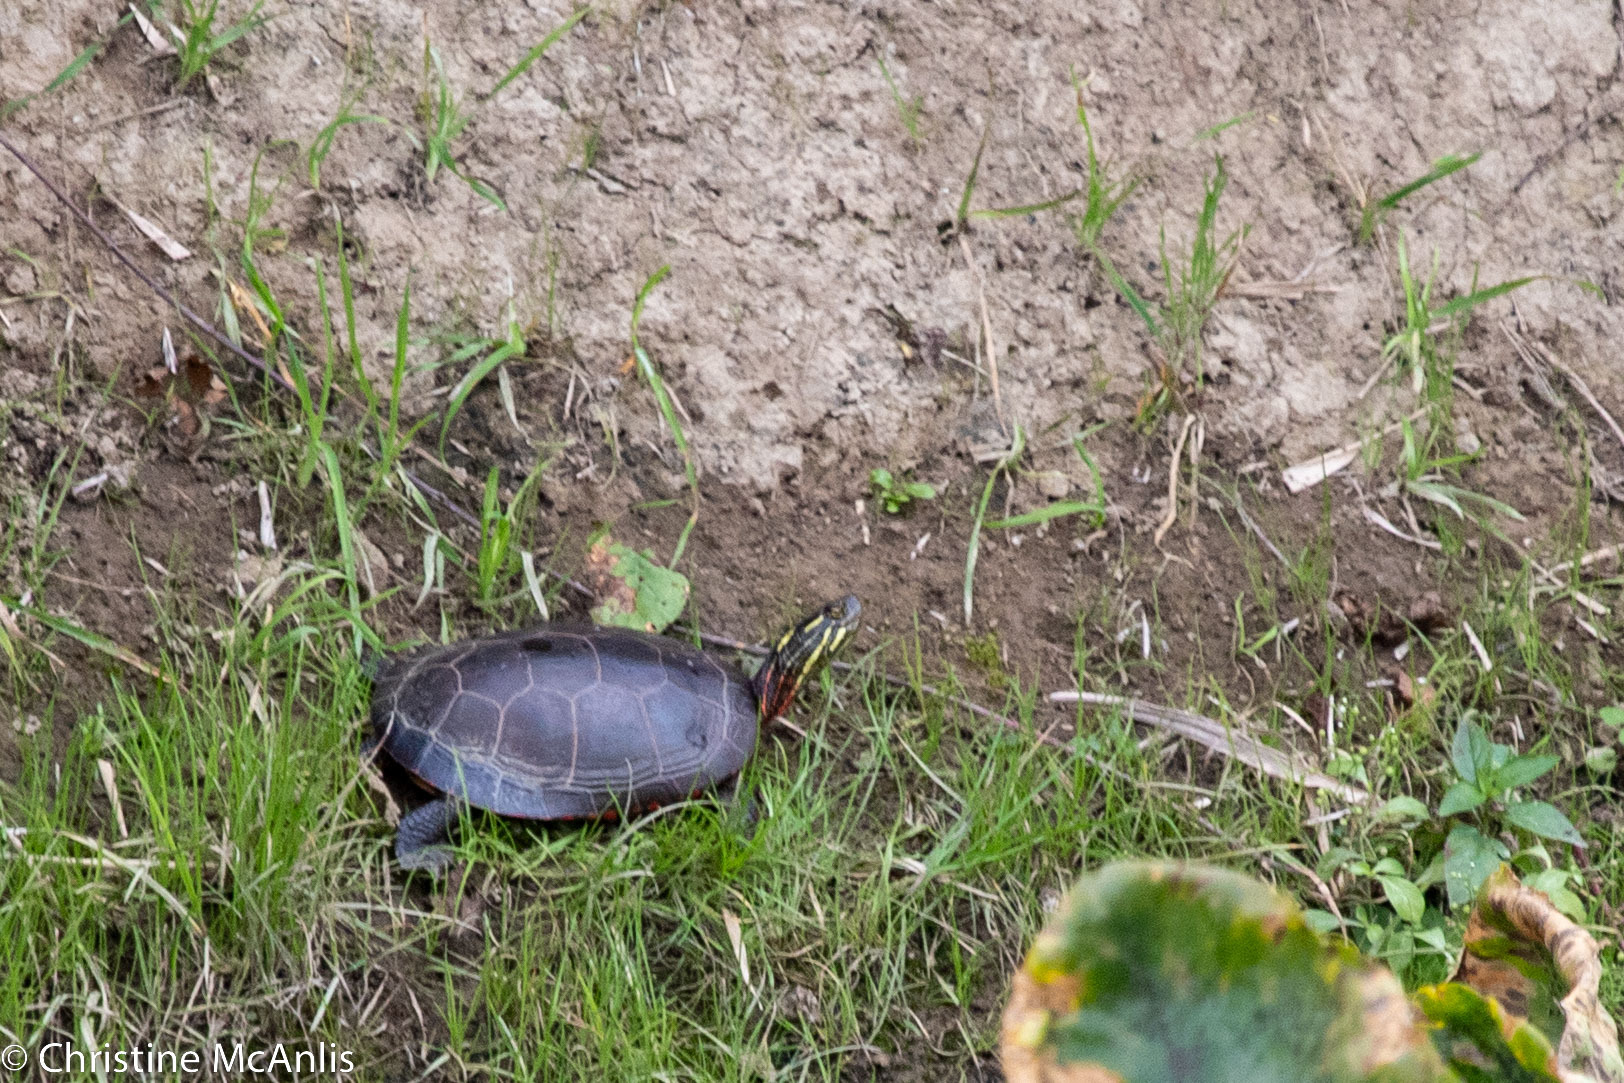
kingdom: Animalia
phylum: Chordata
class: Testudines
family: Emydidae
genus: Chrysemys
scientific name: Chrysemys picta
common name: Painted turtle
